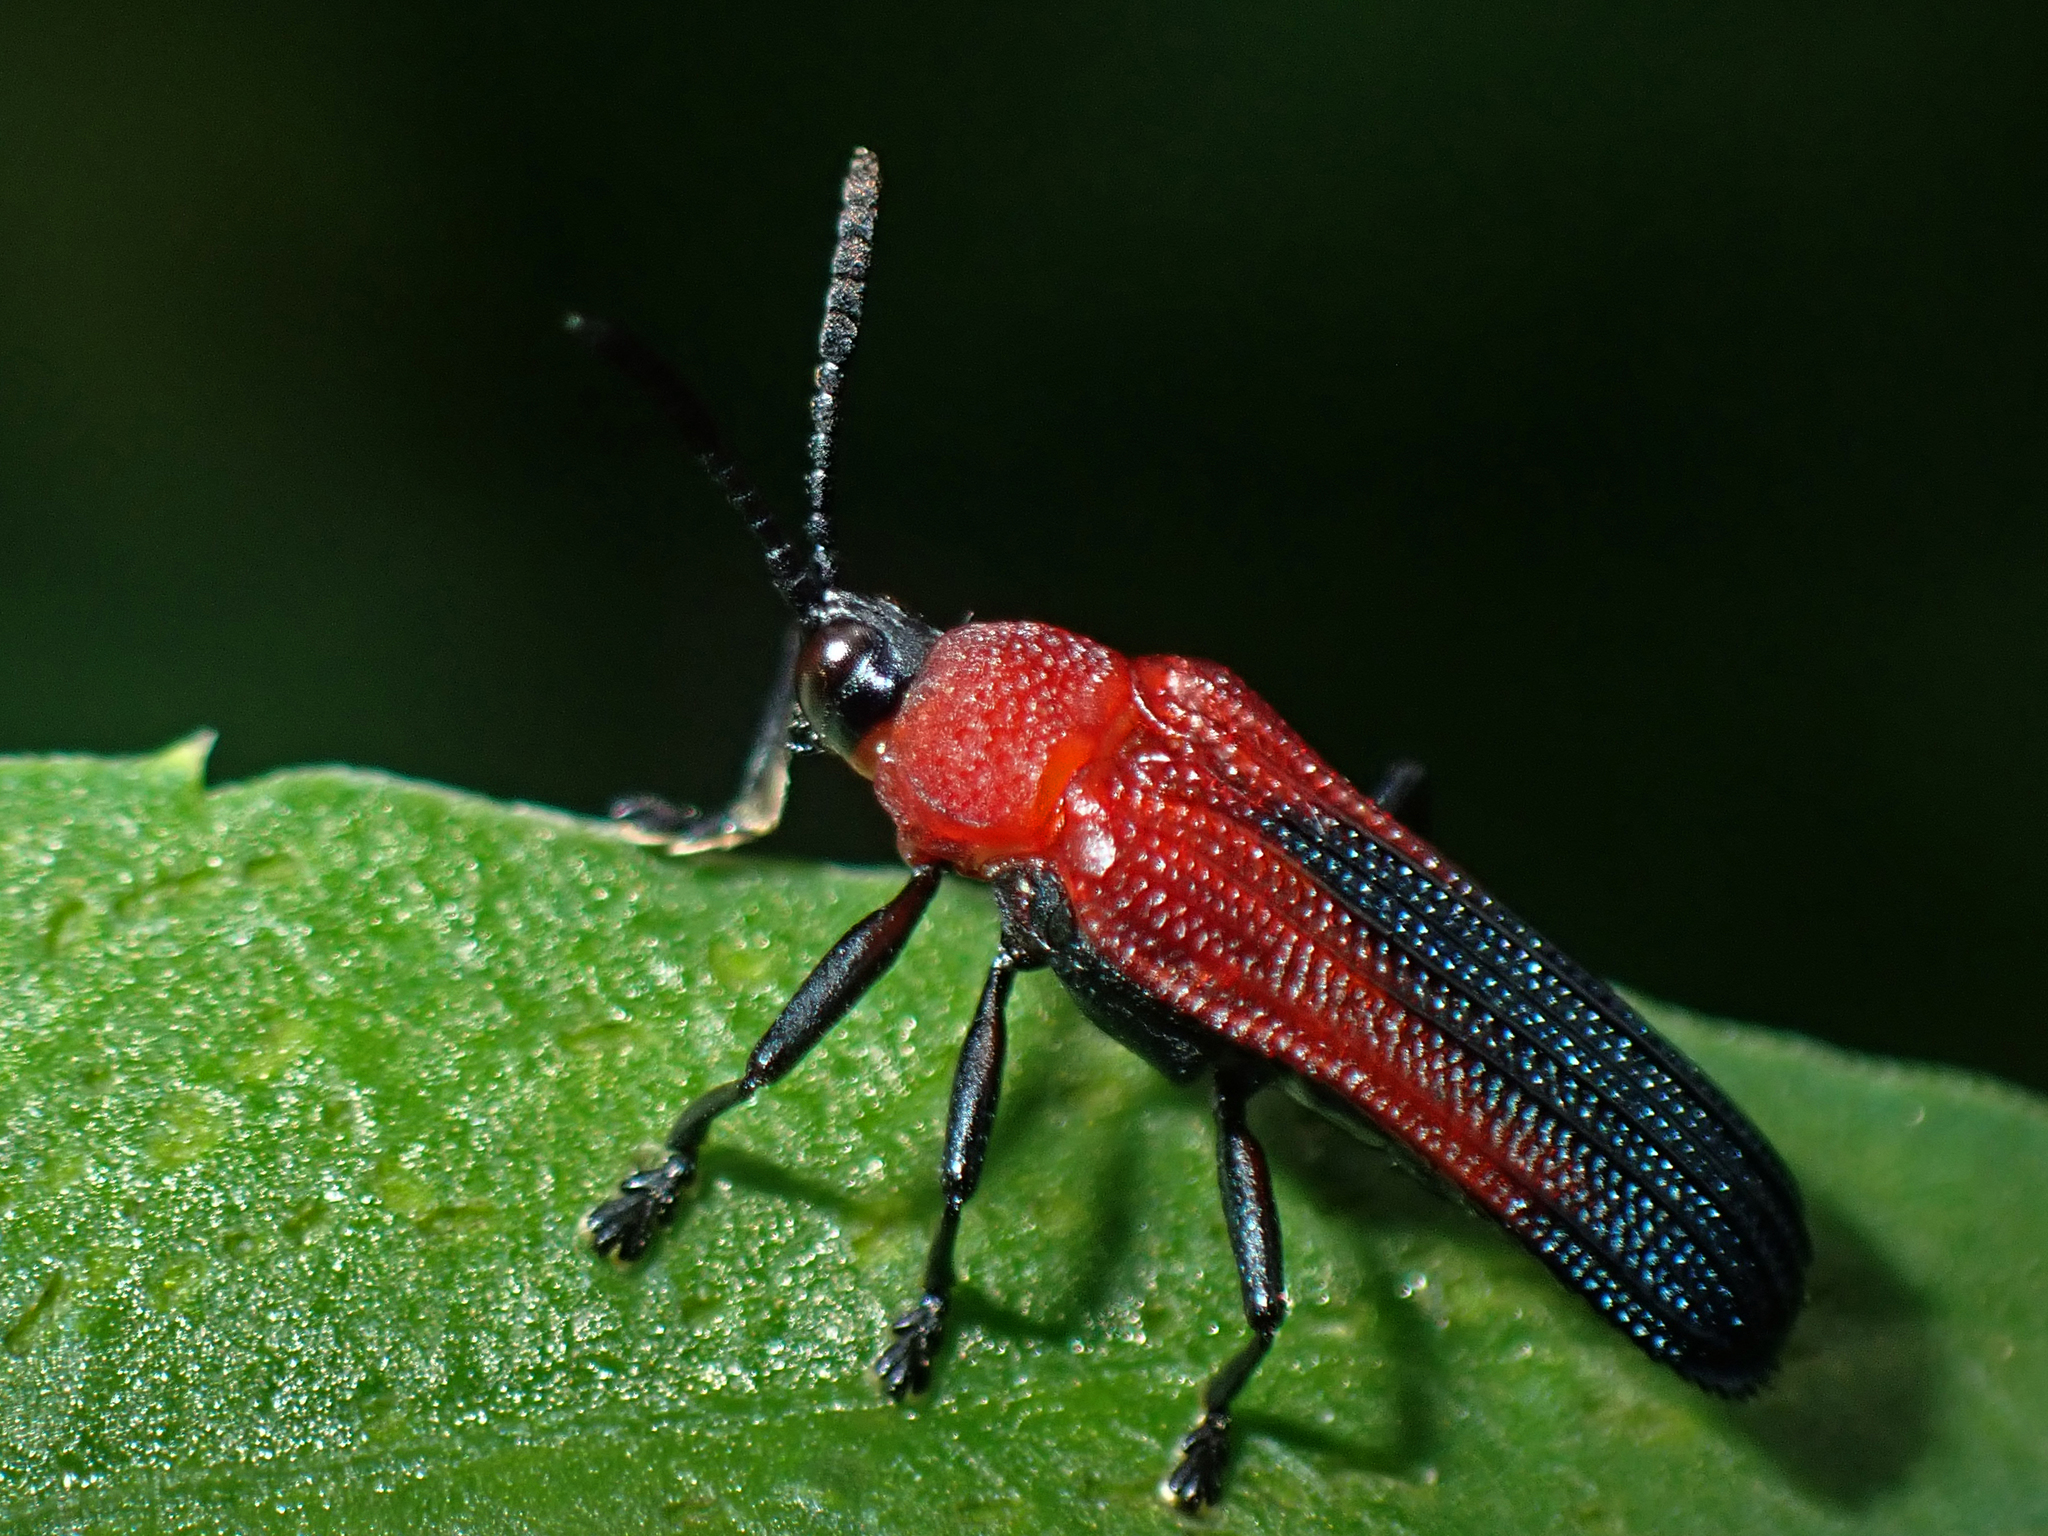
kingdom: Animalia
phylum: Arthropoda
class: Insecta
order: Coleoptera
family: Chrysomelidae
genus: Chalepus
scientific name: Chalepus sanguinicollis
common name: Red-shouldered leaf beetle
